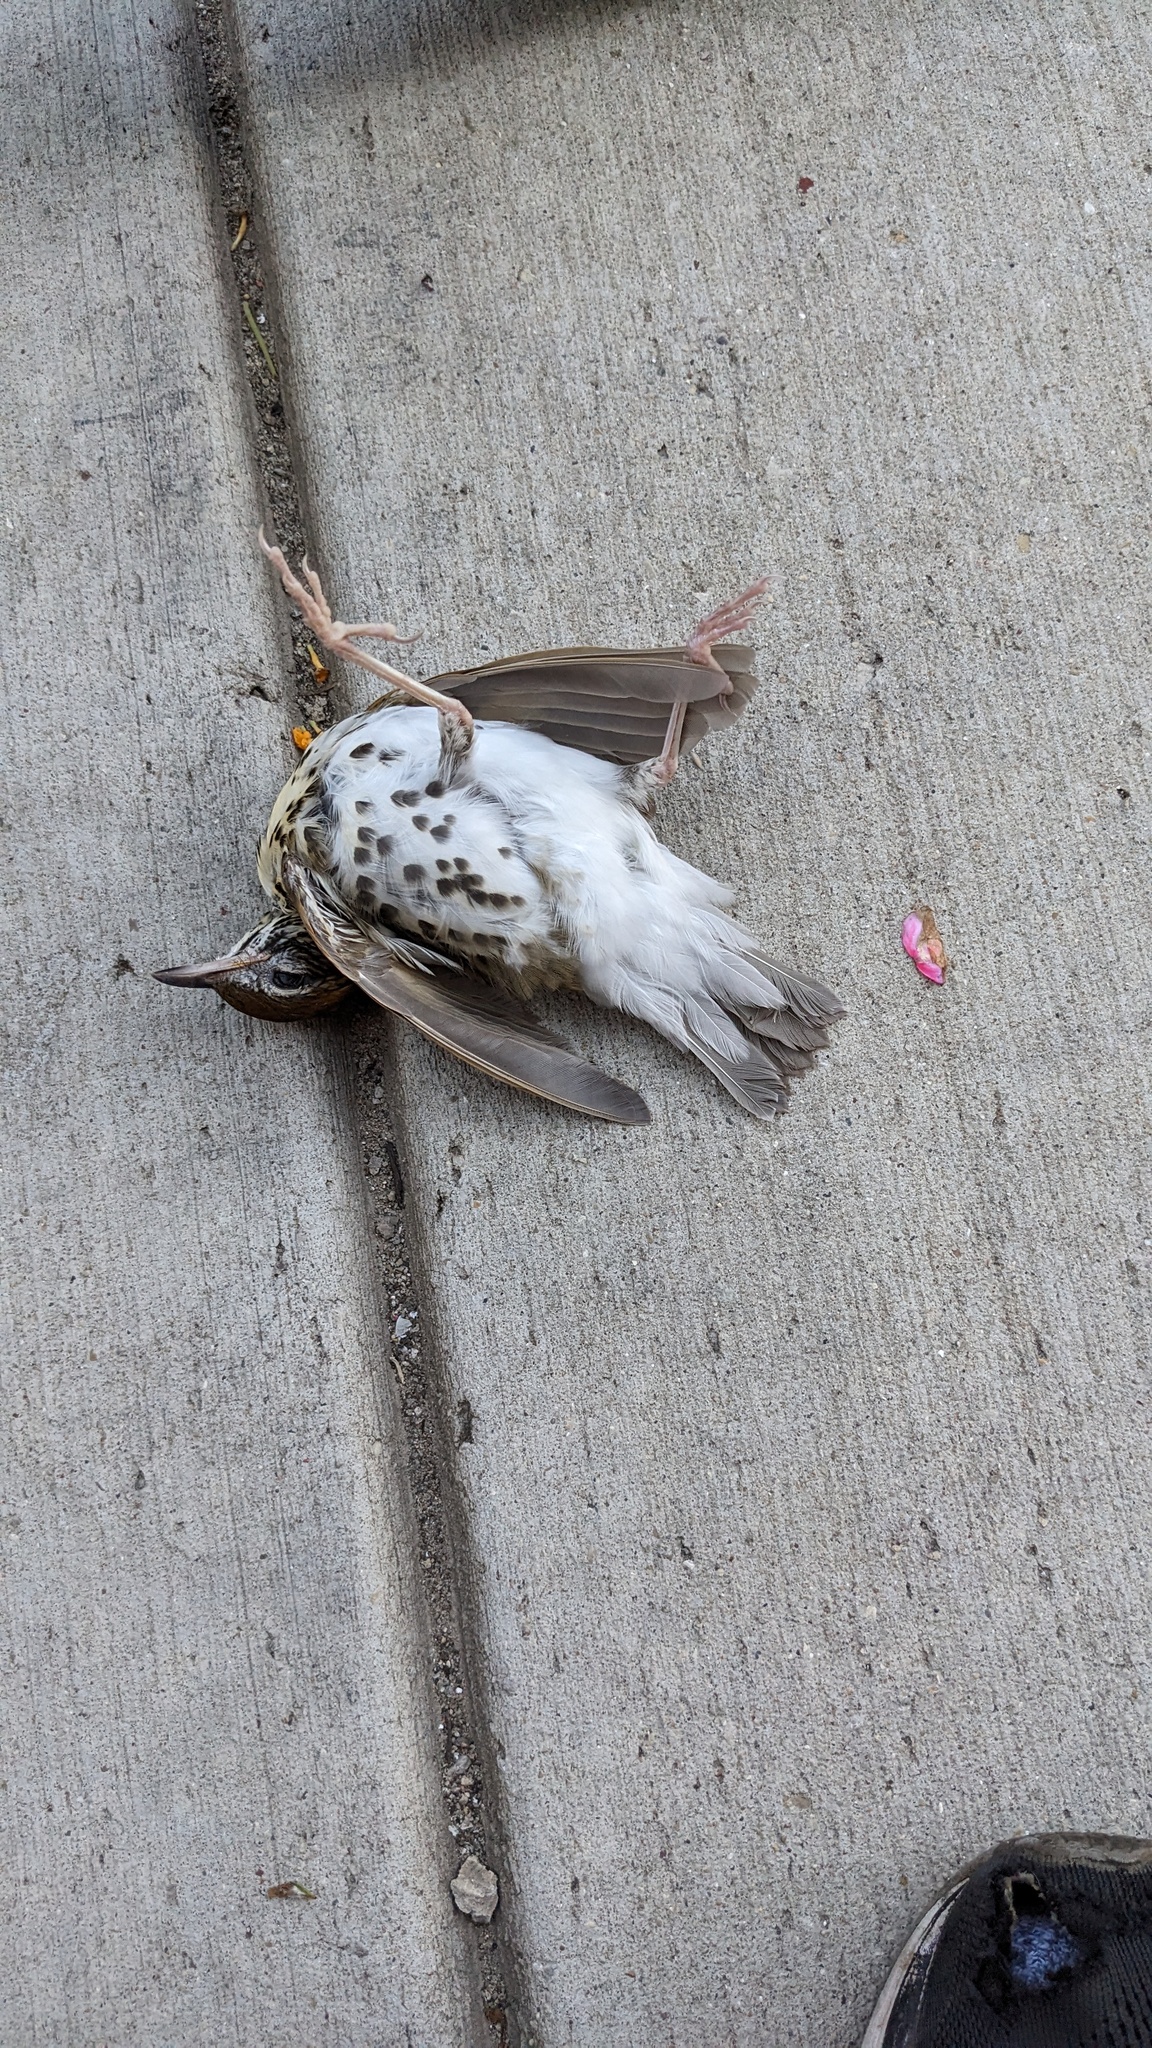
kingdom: Animalia
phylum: Chordata
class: Aves
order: Passeriformes
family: Turdidae
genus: Hylocichla
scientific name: Hylocichla mustelina
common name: Wood thrush
